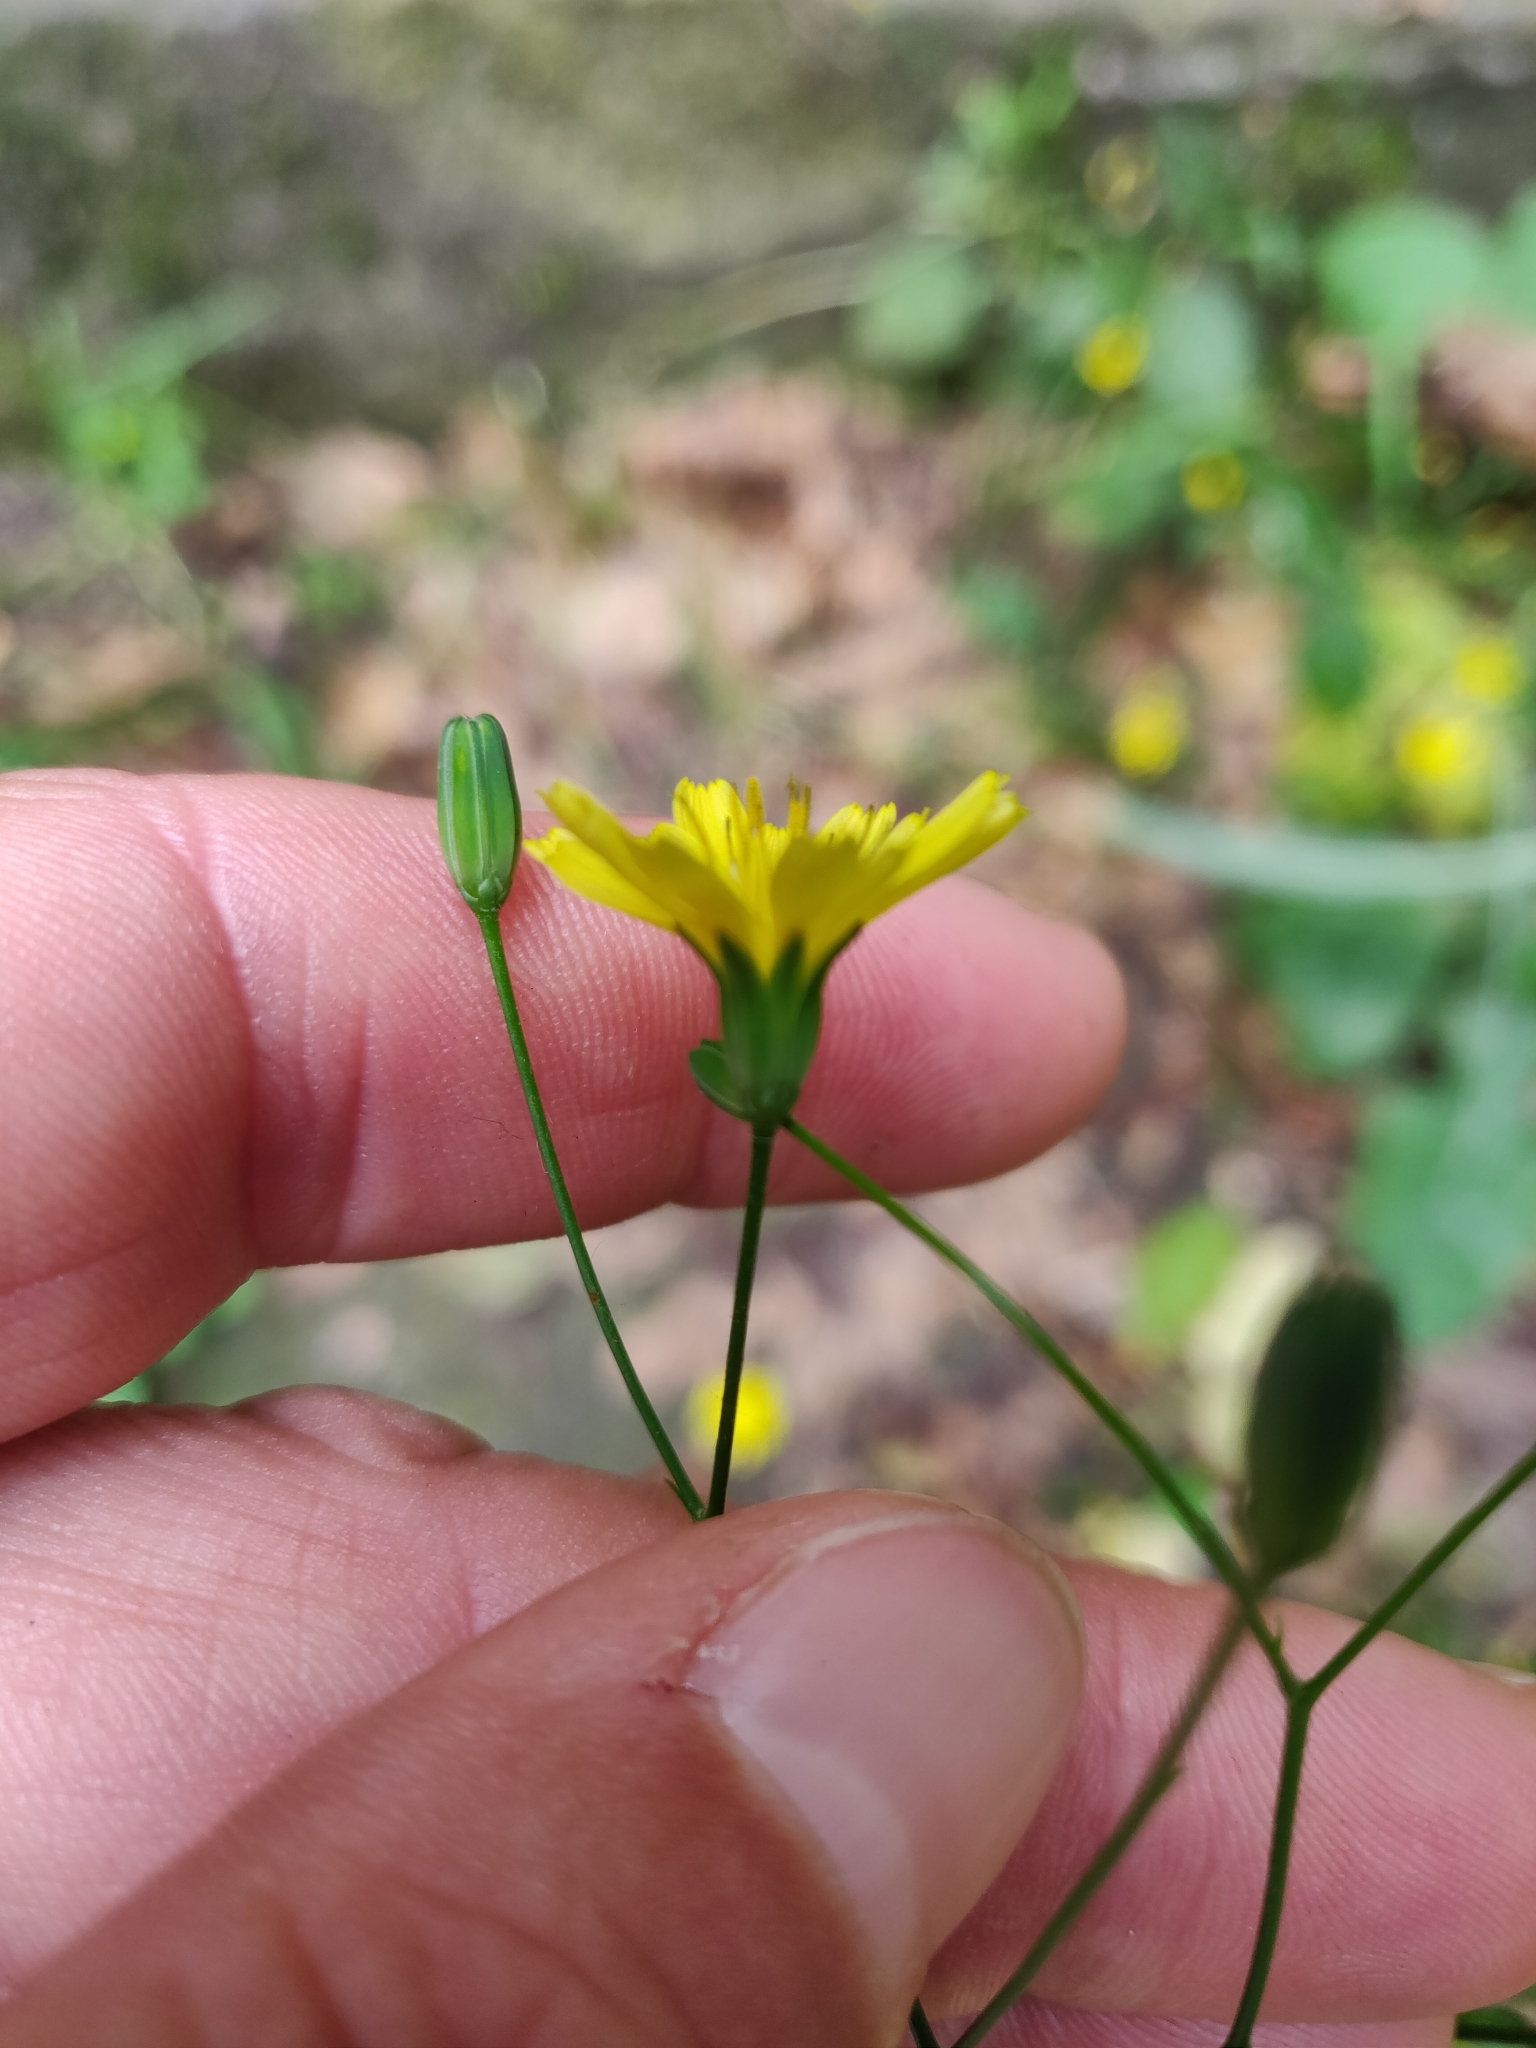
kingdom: Plantae
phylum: Tracheophyta
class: Magnoliopsida
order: Asterales
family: Asteraceae
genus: Lapsana
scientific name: Lapsana communis
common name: Nipplewort
